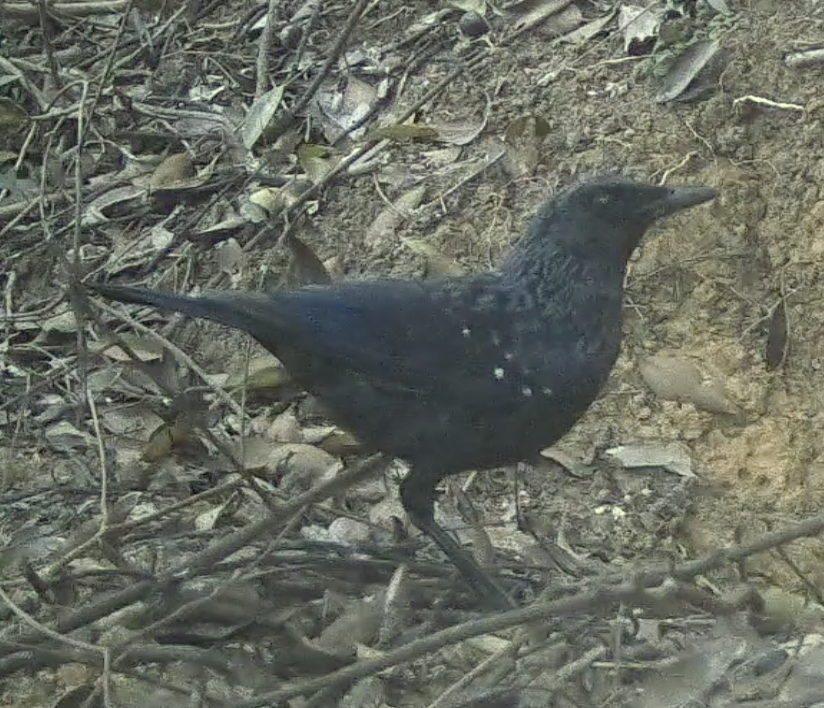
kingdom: Animalia
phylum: Chordata
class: Aves
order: Passeriformes
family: Muscicapidae
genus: Myophonus
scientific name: Myophonus caeruleus
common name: Blue whistling-thrush
